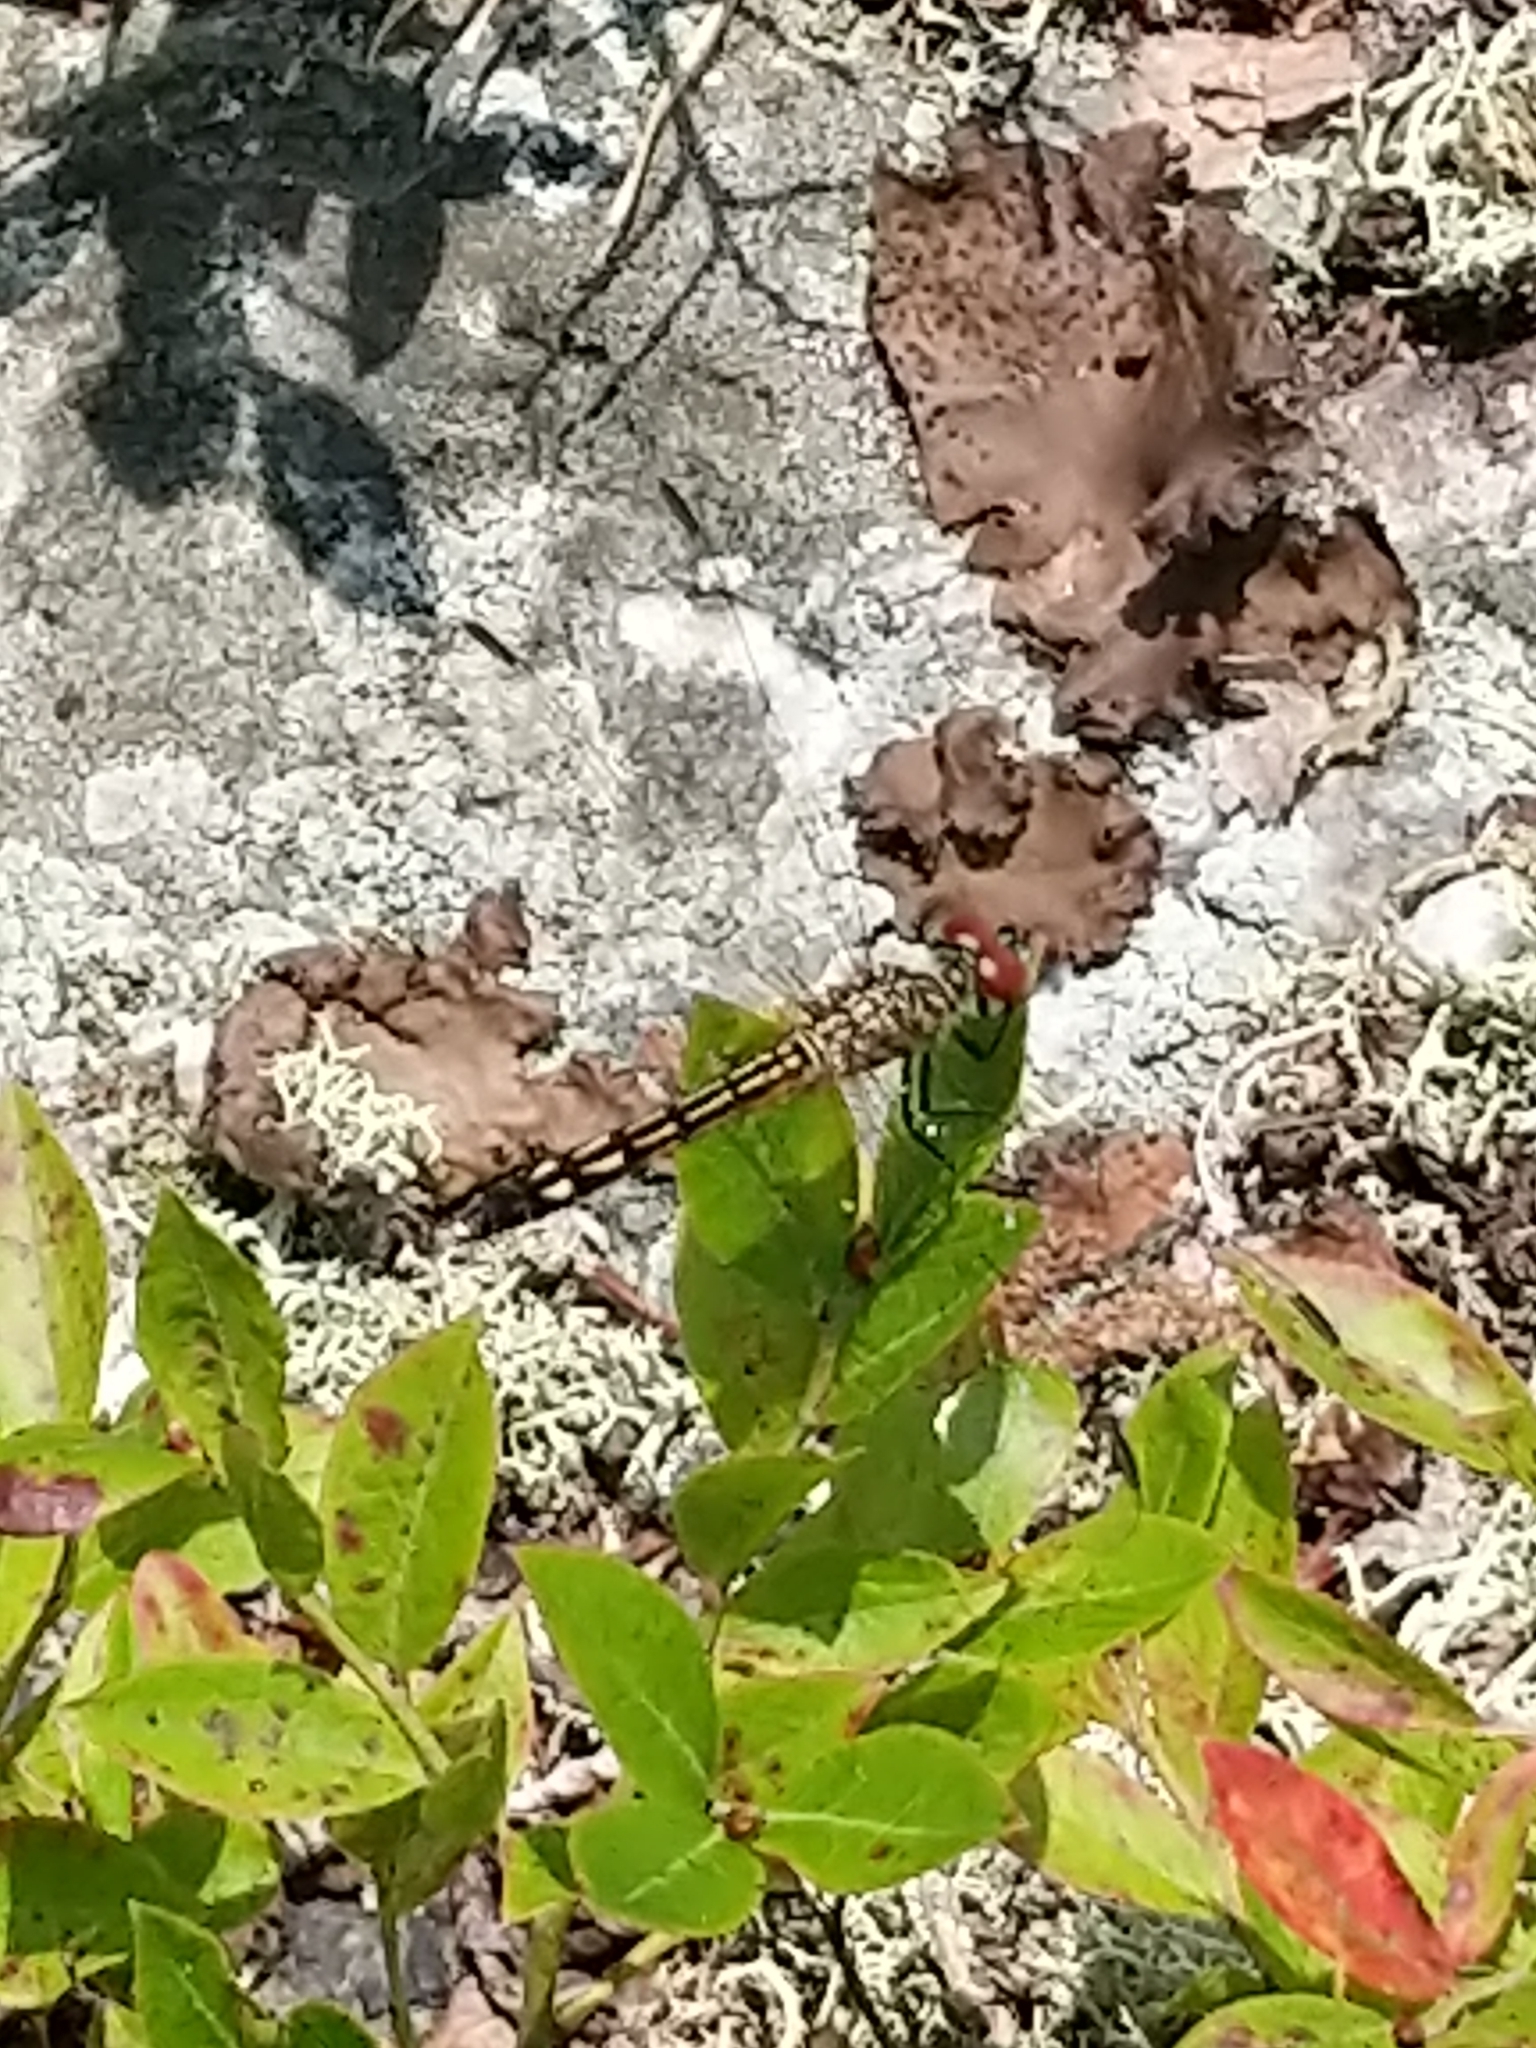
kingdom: Animalia
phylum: Arthropoda
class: Insecta
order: Odonata
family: Libellulidae
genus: Pachydiplax
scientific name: Pachydiplax longipennis
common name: Blue dasher
